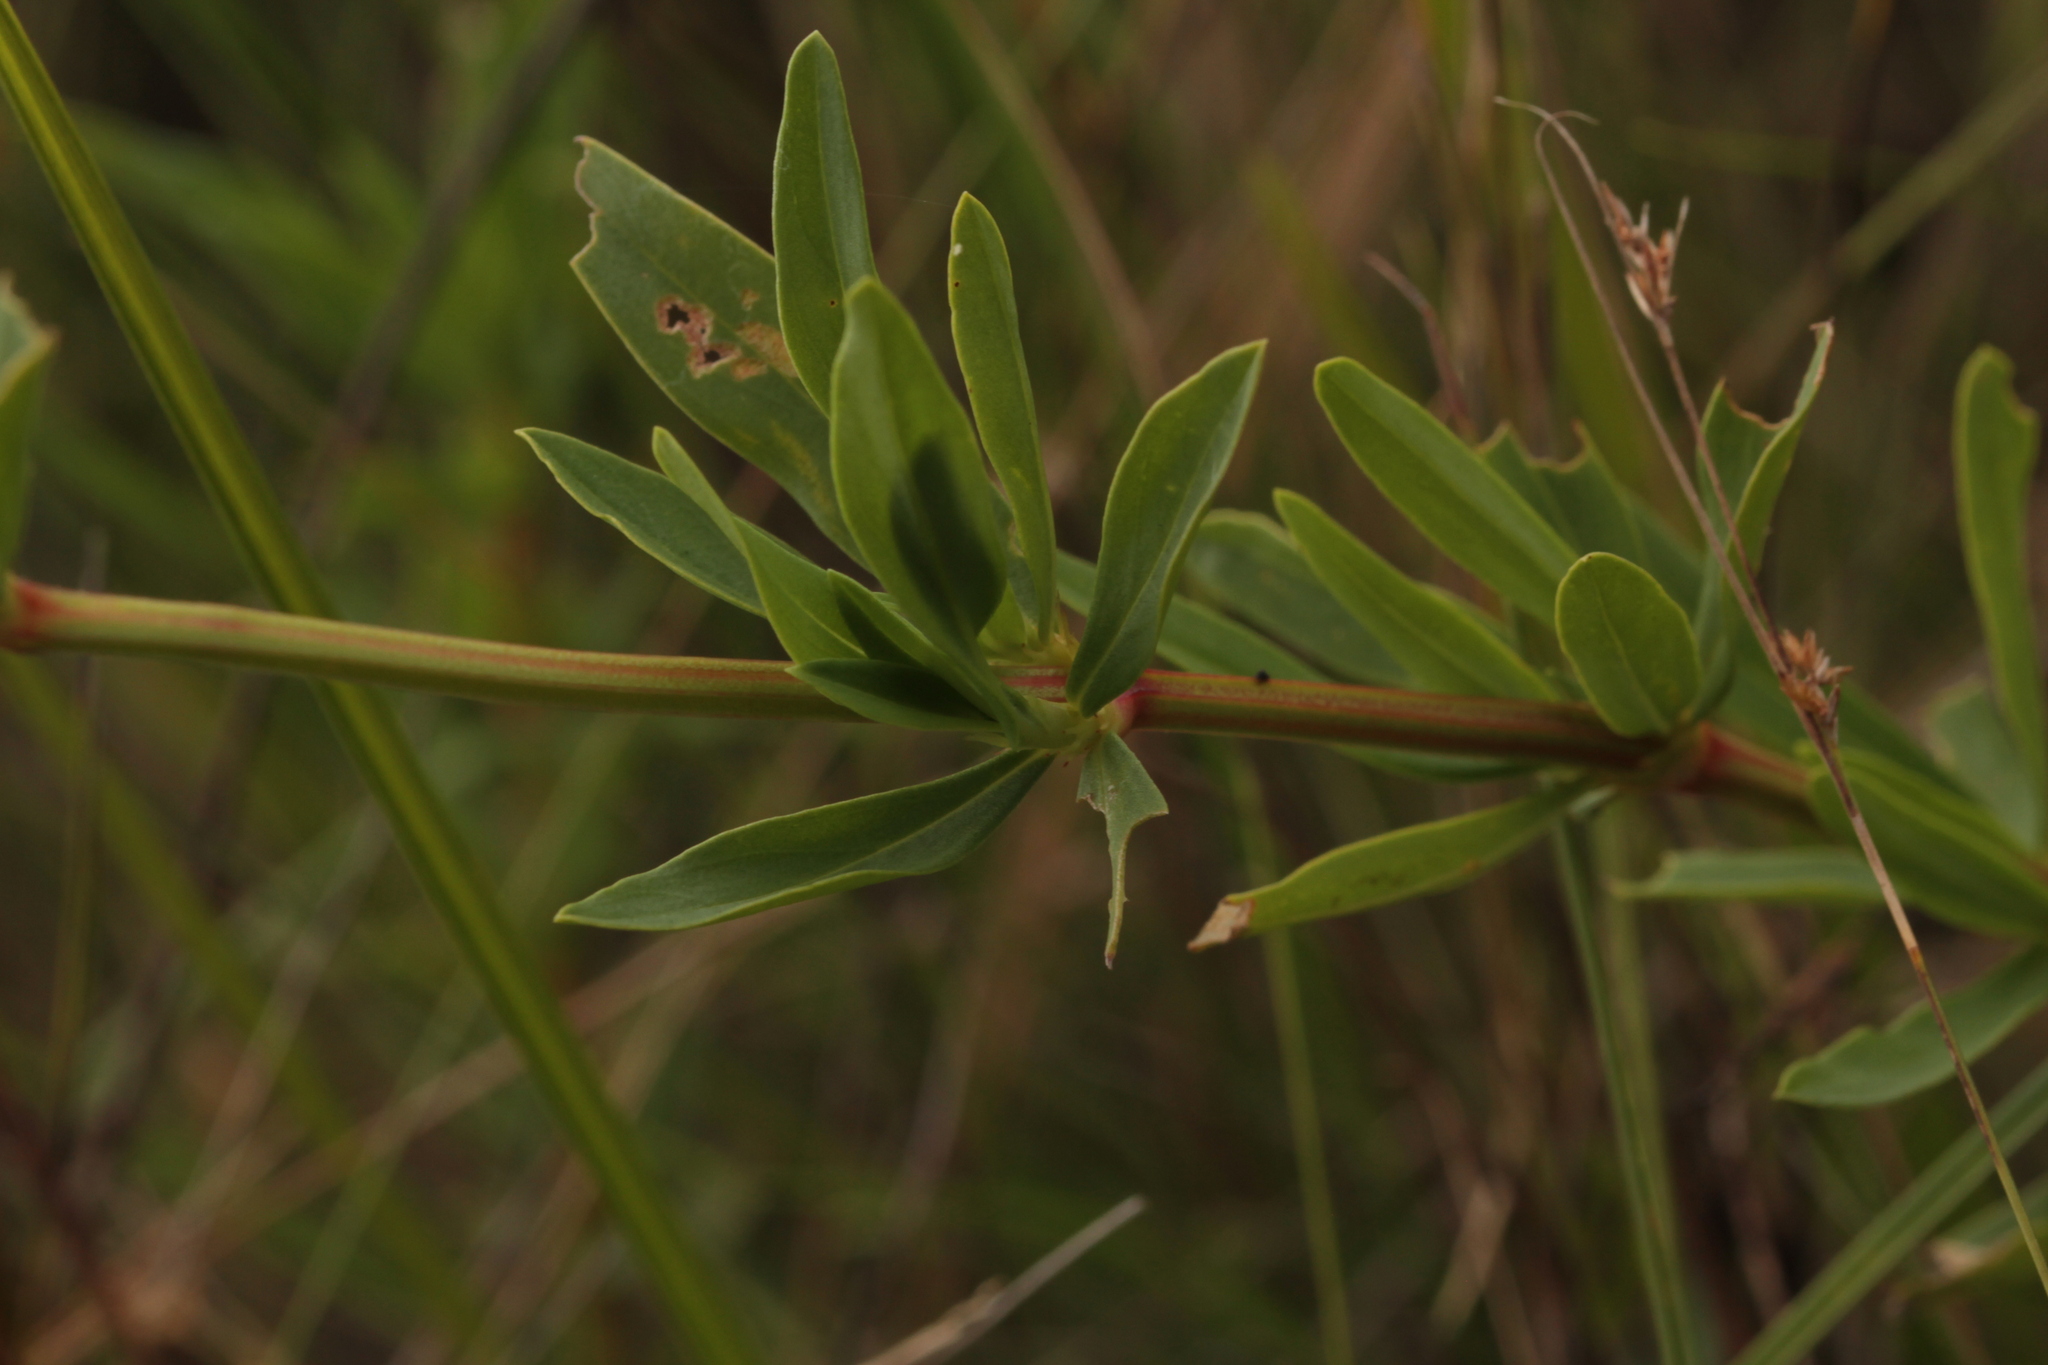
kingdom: Plantae
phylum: Tracheophyta
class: Magnoliopsida
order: Gentianales
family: Rubiaceae
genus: Spermacoce
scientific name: Spermacoce verticillata
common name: Shrubby false buttonweed
